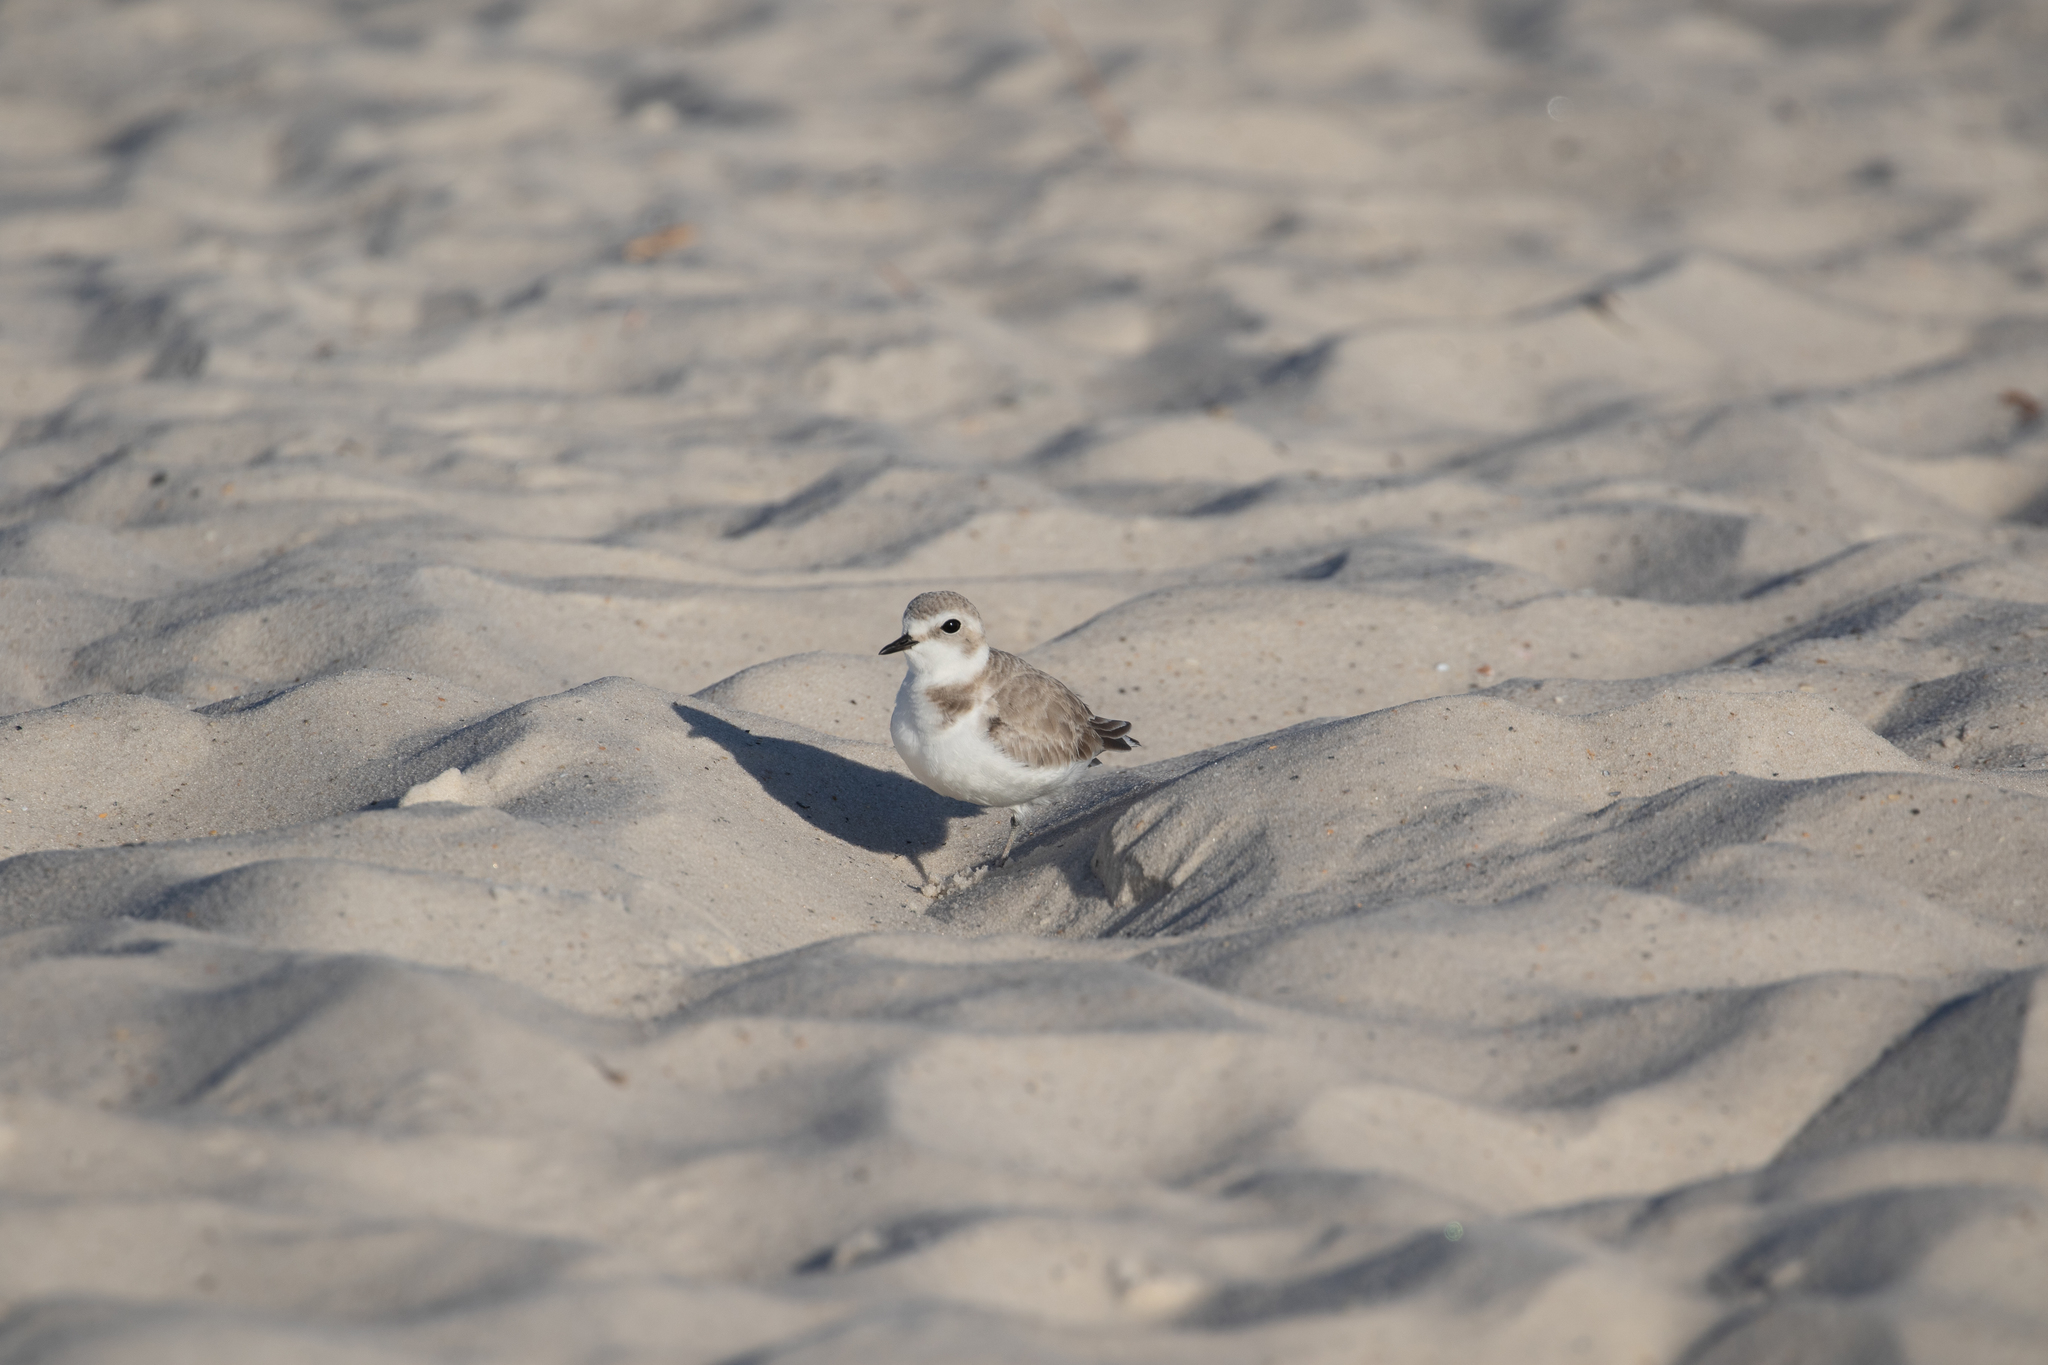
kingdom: Animalia
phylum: Chordata
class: Aves
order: Charadriiformes
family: Charadriidae
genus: Anarhynchus
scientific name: Anarhynchus
